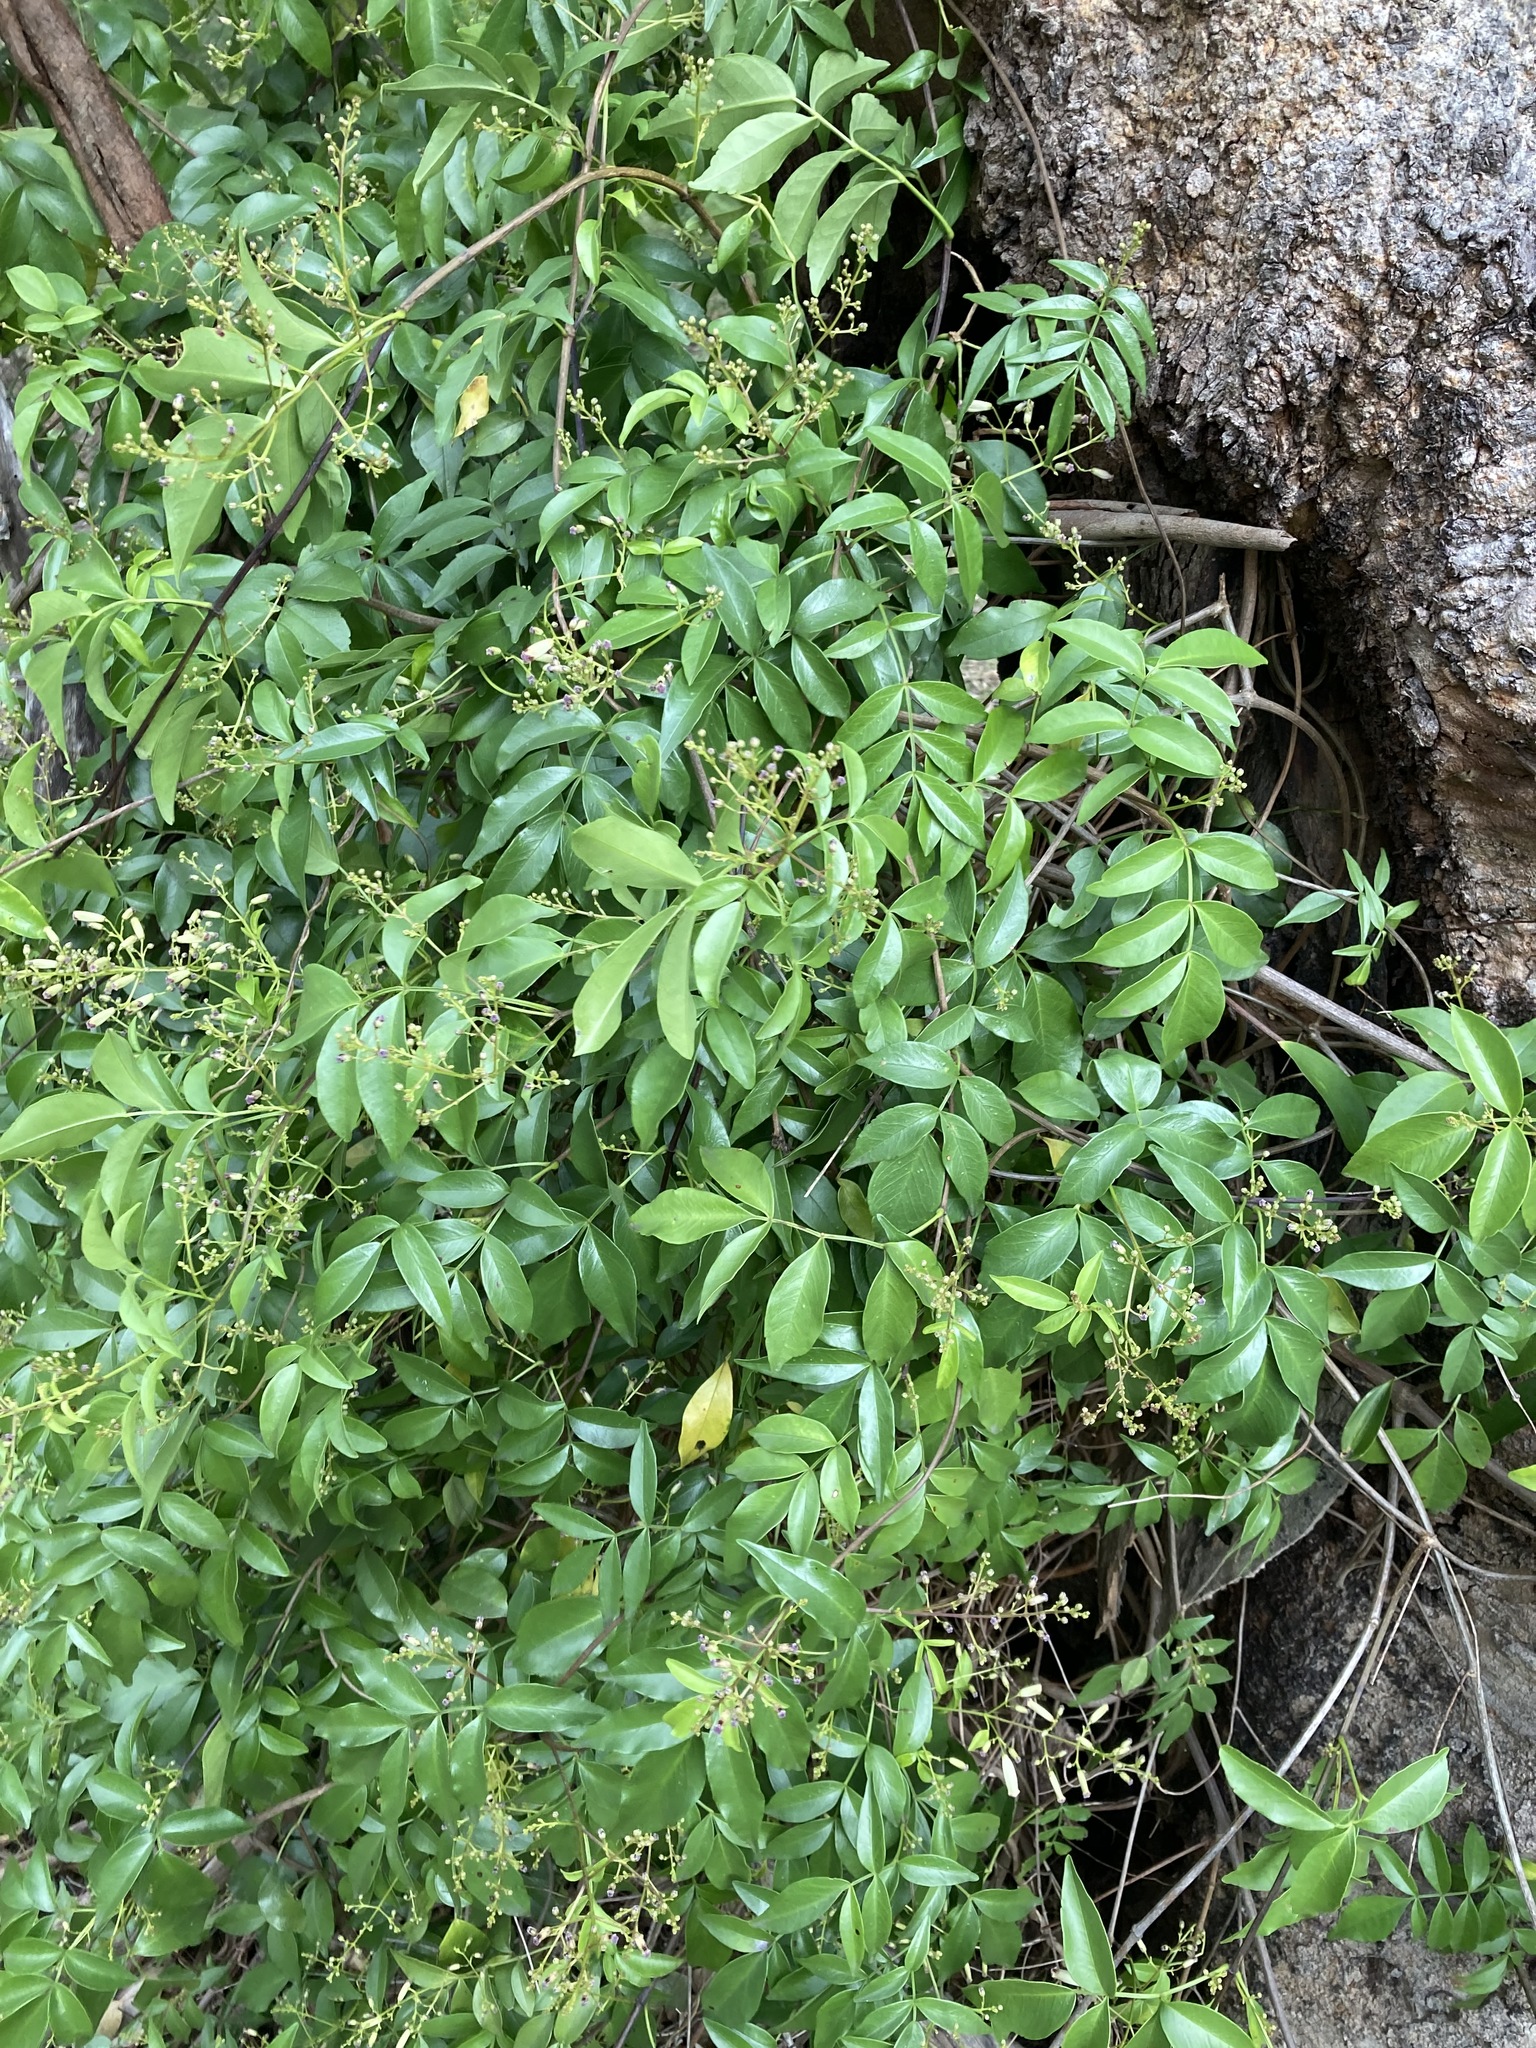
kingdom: Plantae
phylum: Tracheophyta
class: Magnoliopsida
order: Lamiales
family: Bignoniaceae
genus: Pandorea
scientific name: Pandorea pandorana
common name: Wonga-wonga-vine
